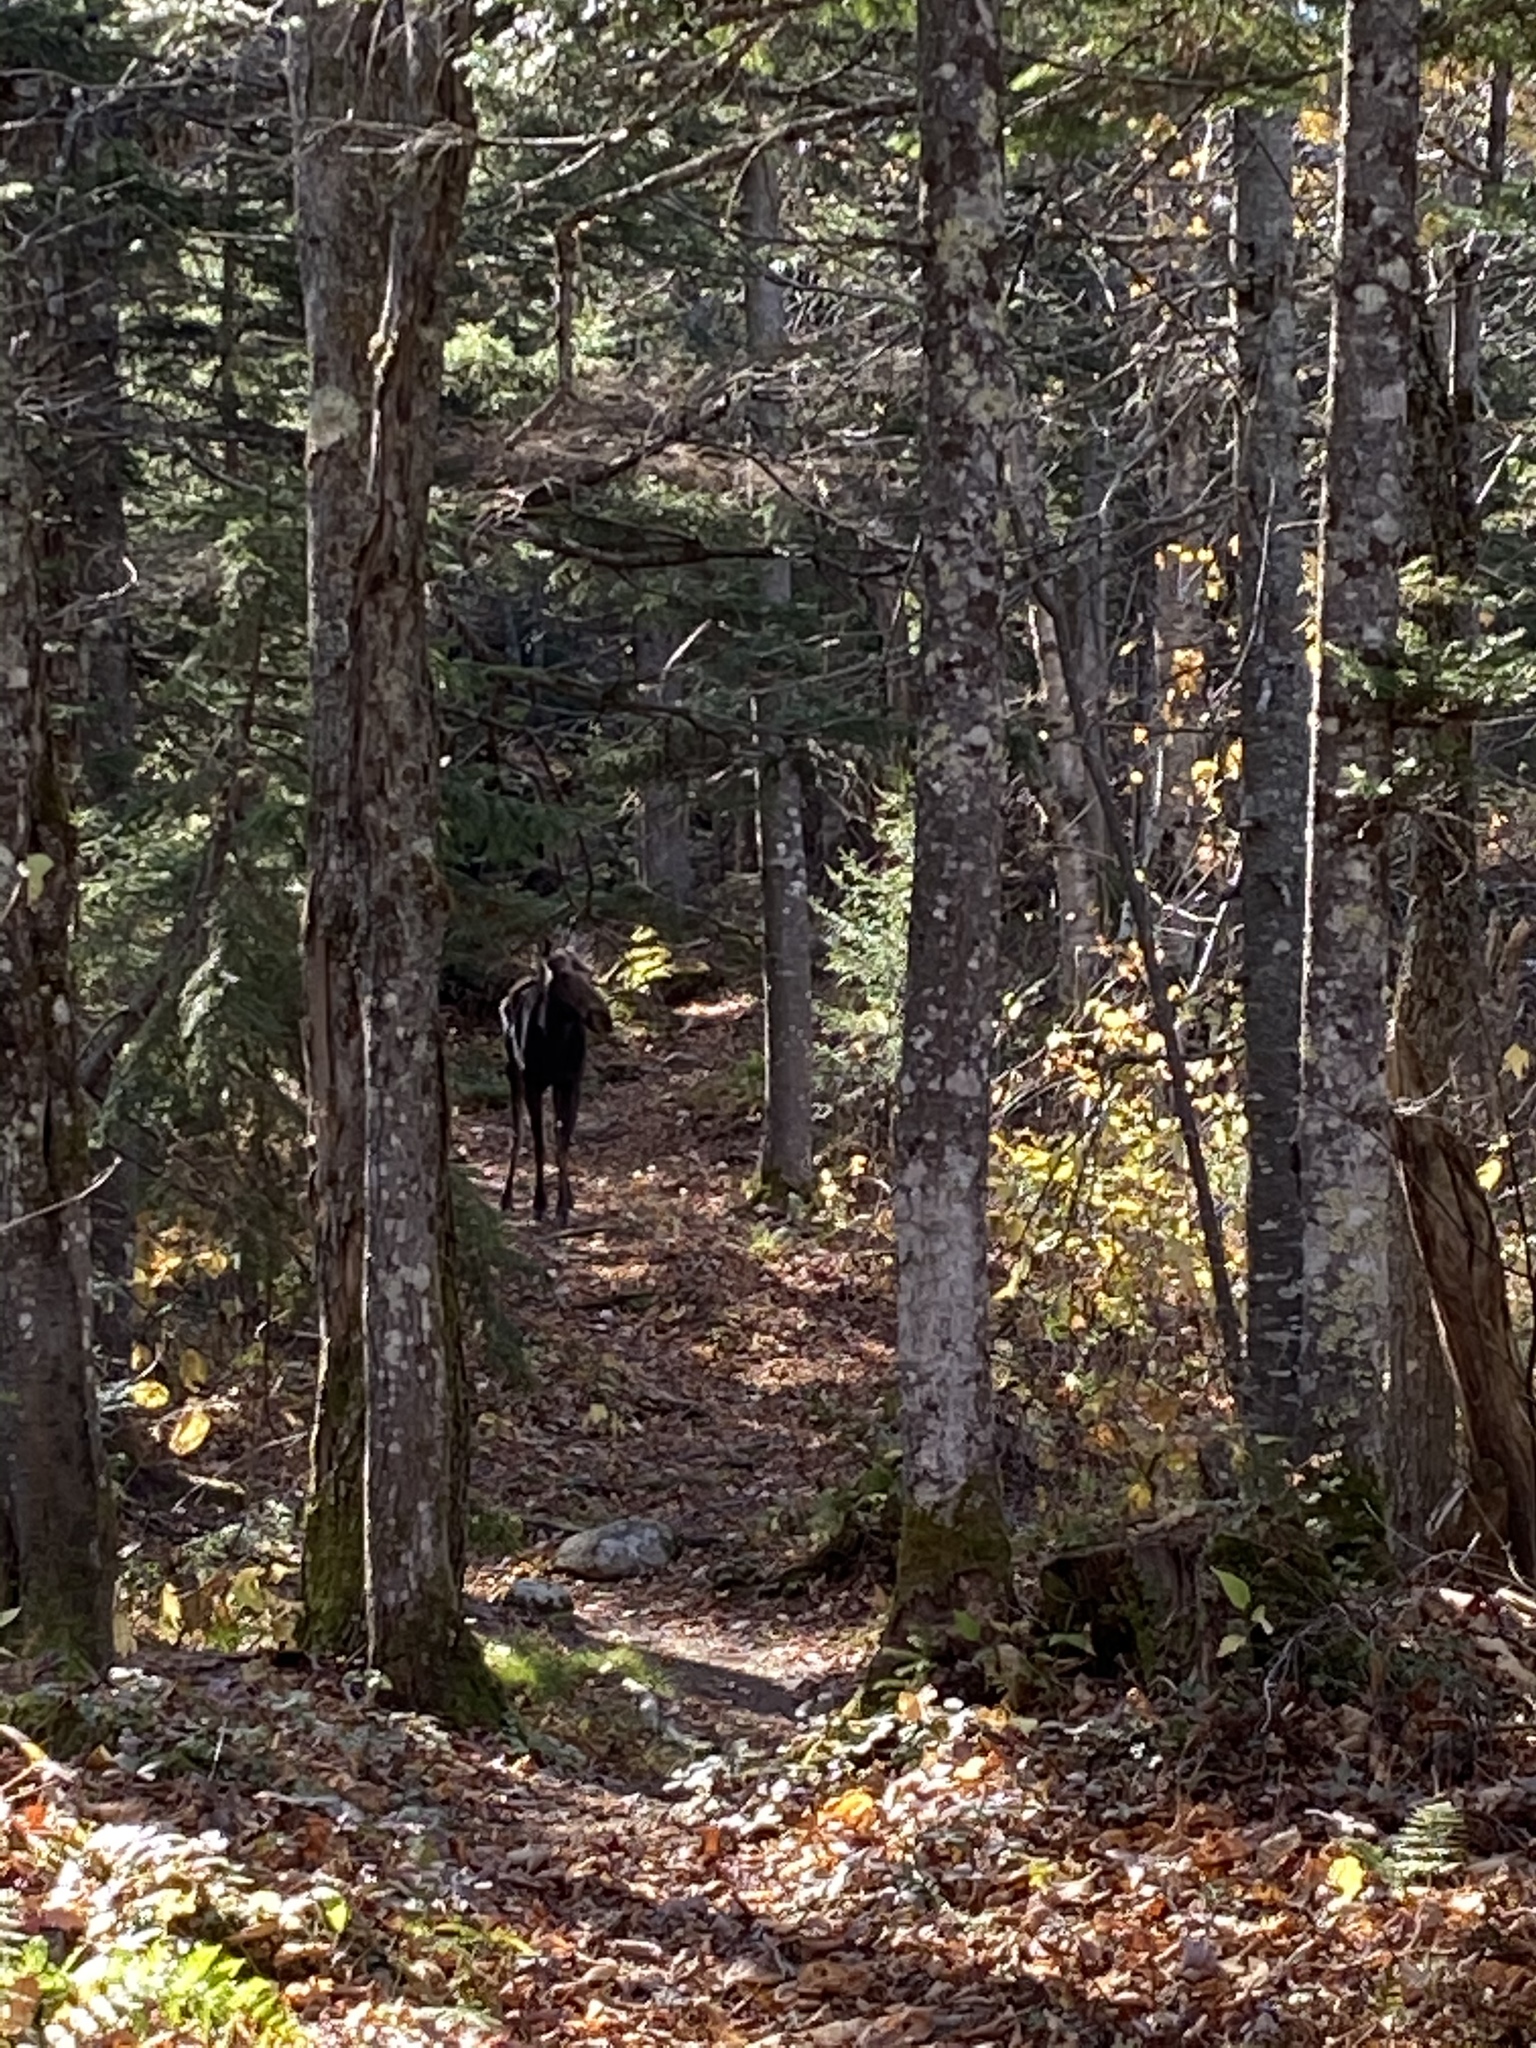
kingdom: Animalia
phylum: Chordata
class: Mammalia
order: Artiodactyla
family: Cervidae
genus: Alces
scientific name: Alces alces
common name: Moose
